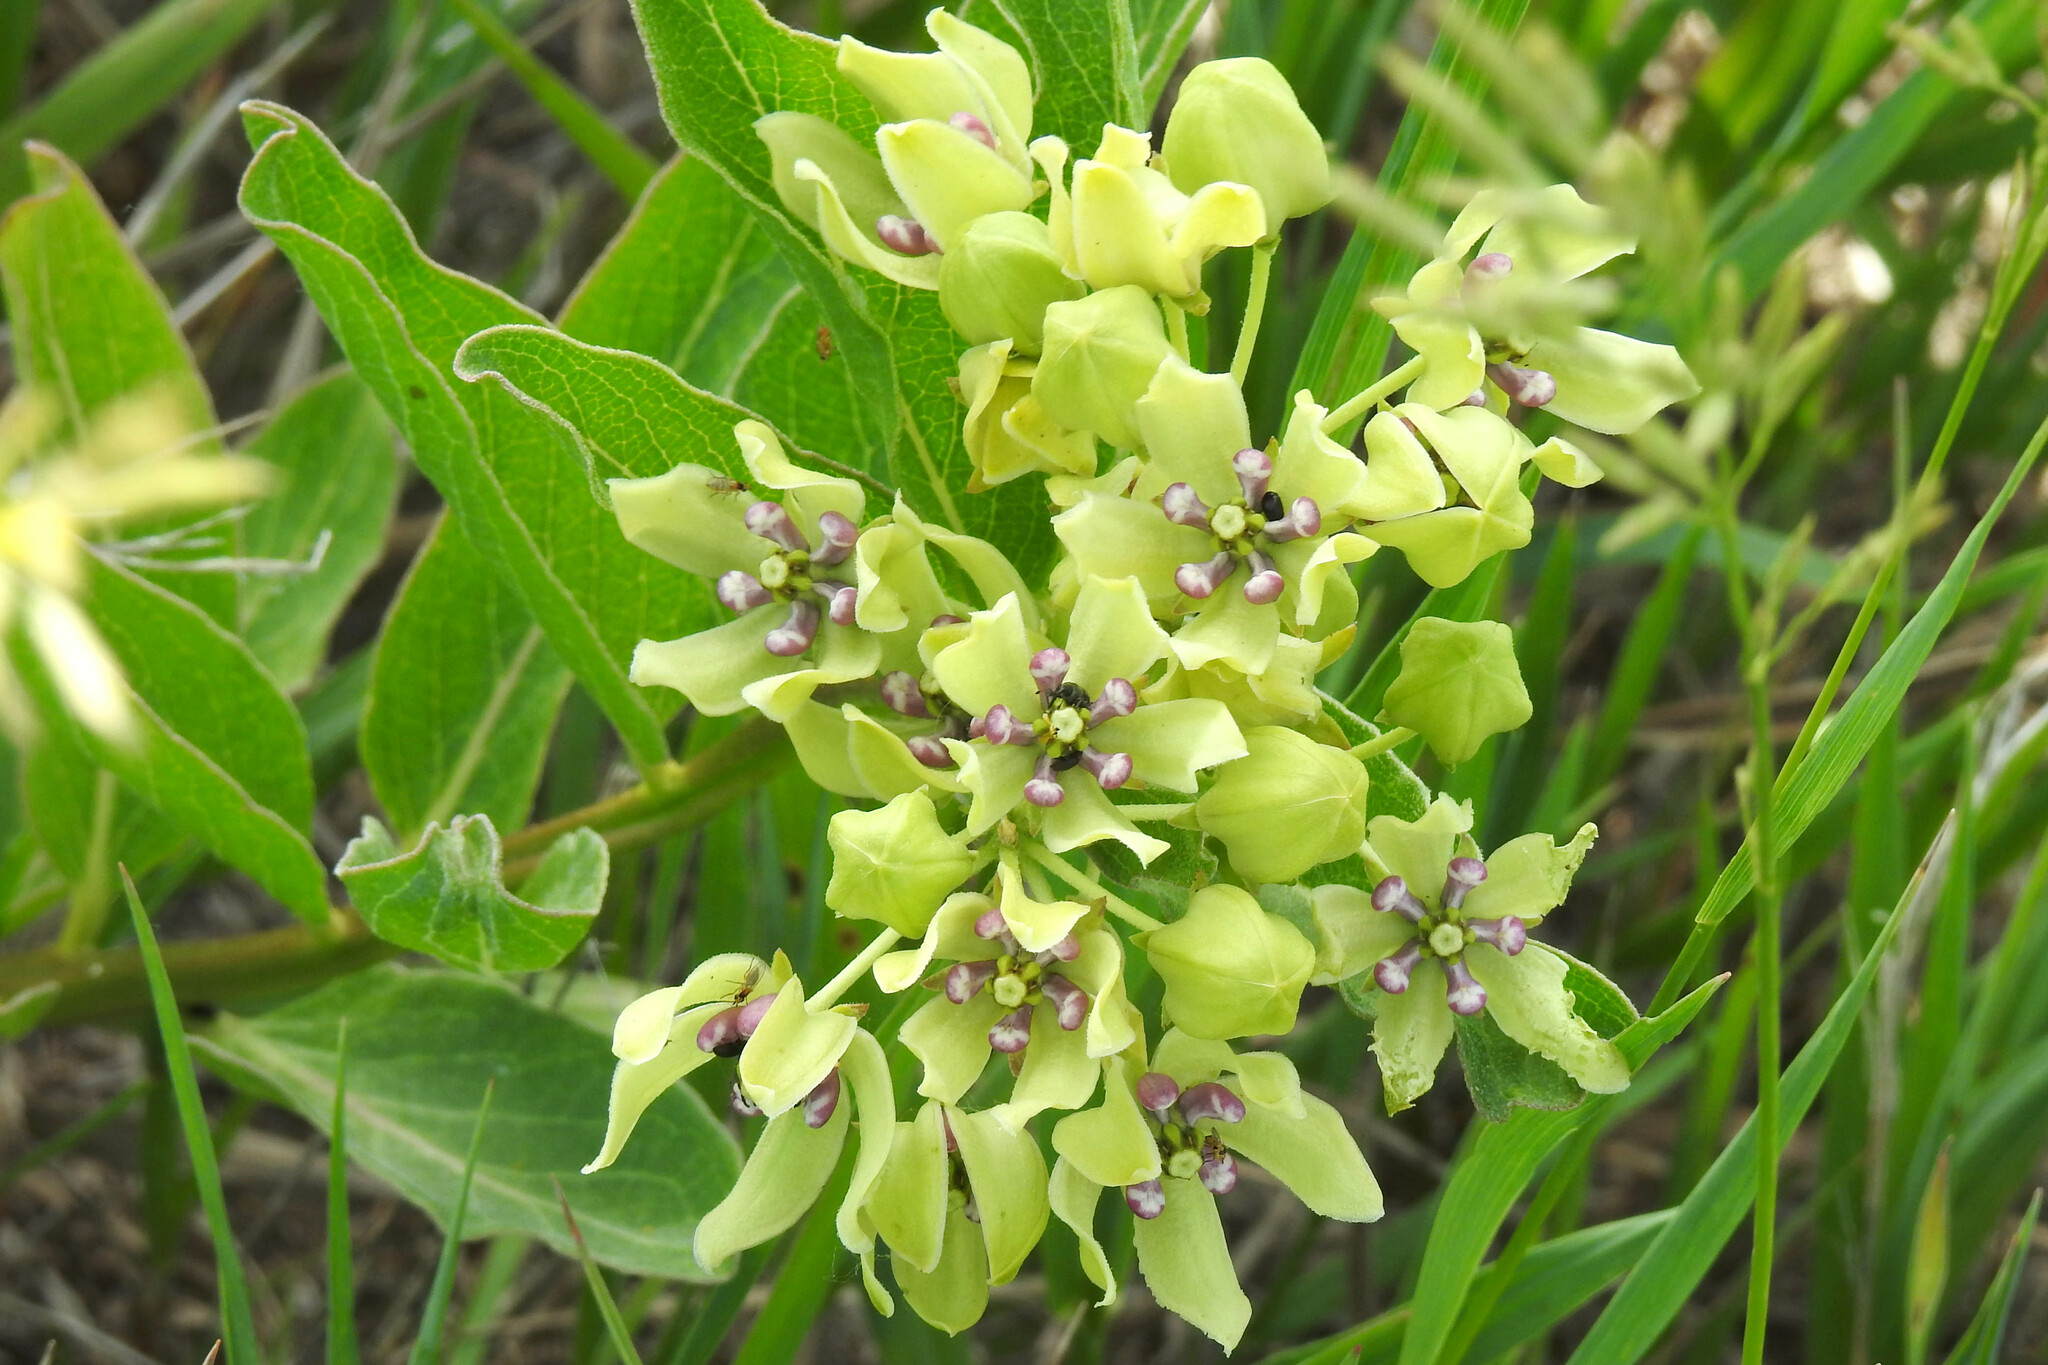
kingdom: Plantae
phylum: Tracheophyta
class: Magnoliopsida
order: Gentianales
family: Apocynaceae
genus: Asclepias
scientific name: Asclepias viridis
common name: Antelope-horns
